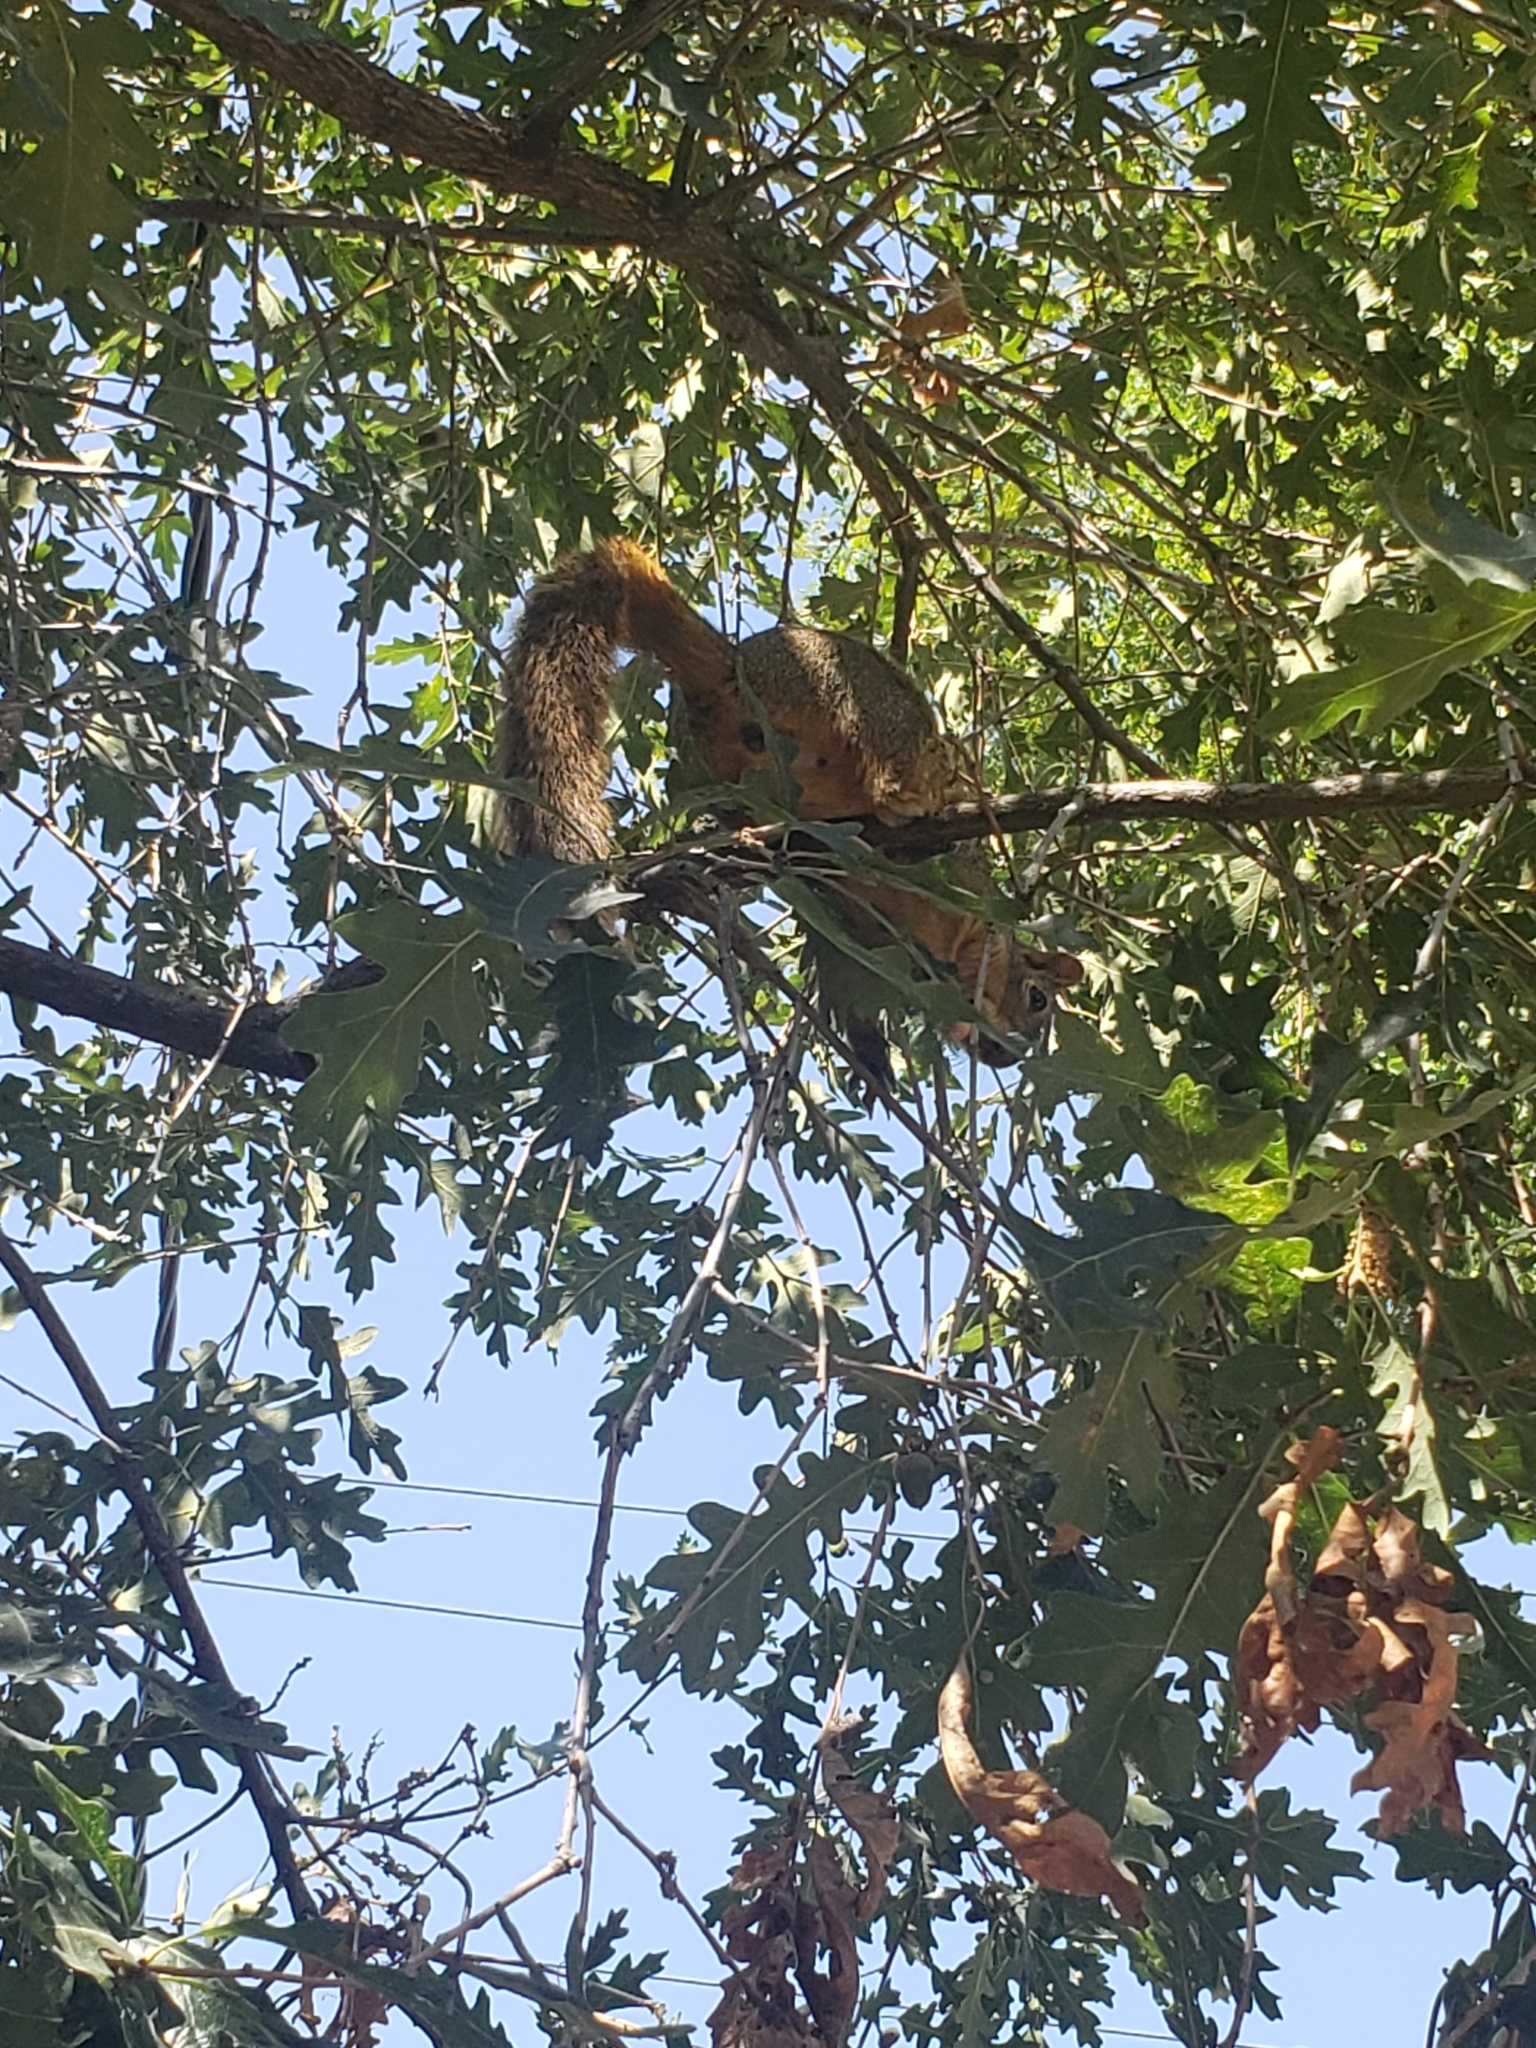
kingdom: Animalia
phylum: Chordata
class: Mammalia
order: Rodentia
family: Sciuridae
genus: Sciurus
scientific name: Sciurus niger
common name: Fox squirrel
